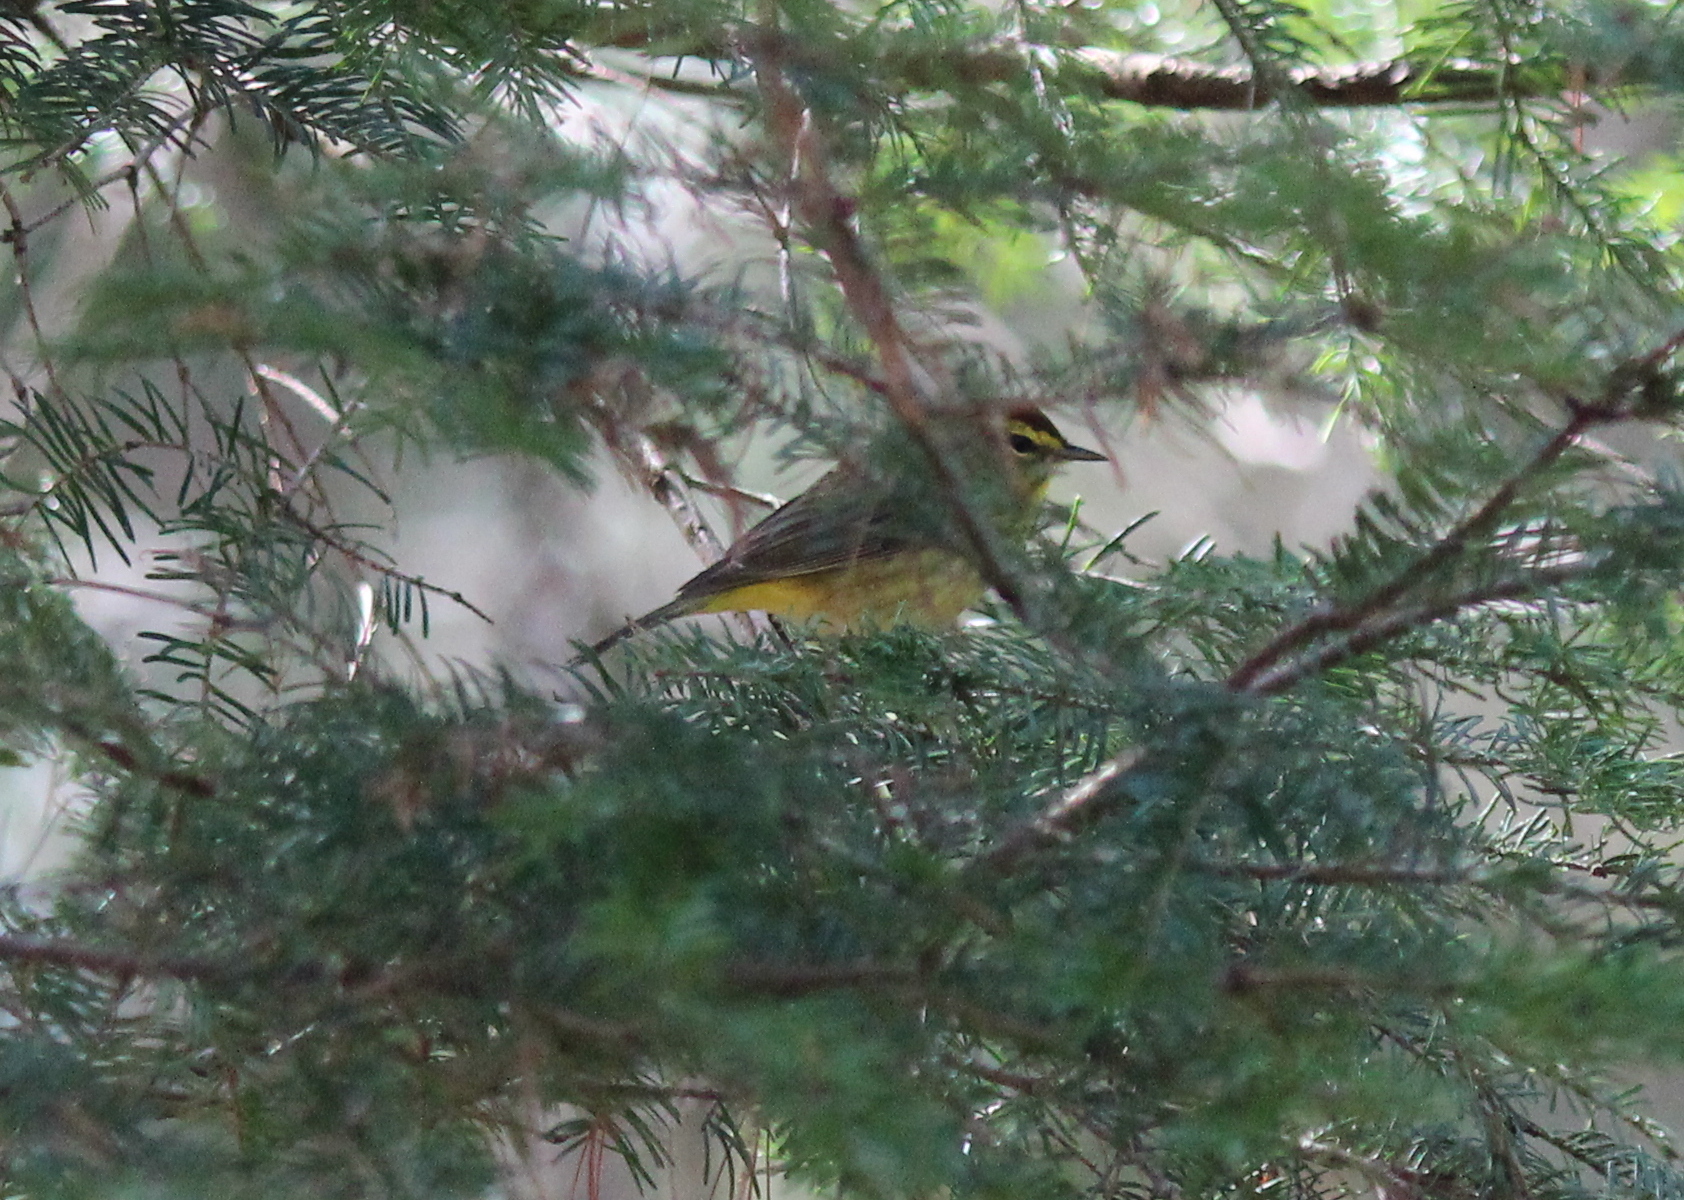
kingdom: Animalia
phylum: Chordata
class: Aves
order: Passeriformes
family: Parulidae
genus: Setophaga
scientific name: Setophaga palmarum
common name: Palm warbler
